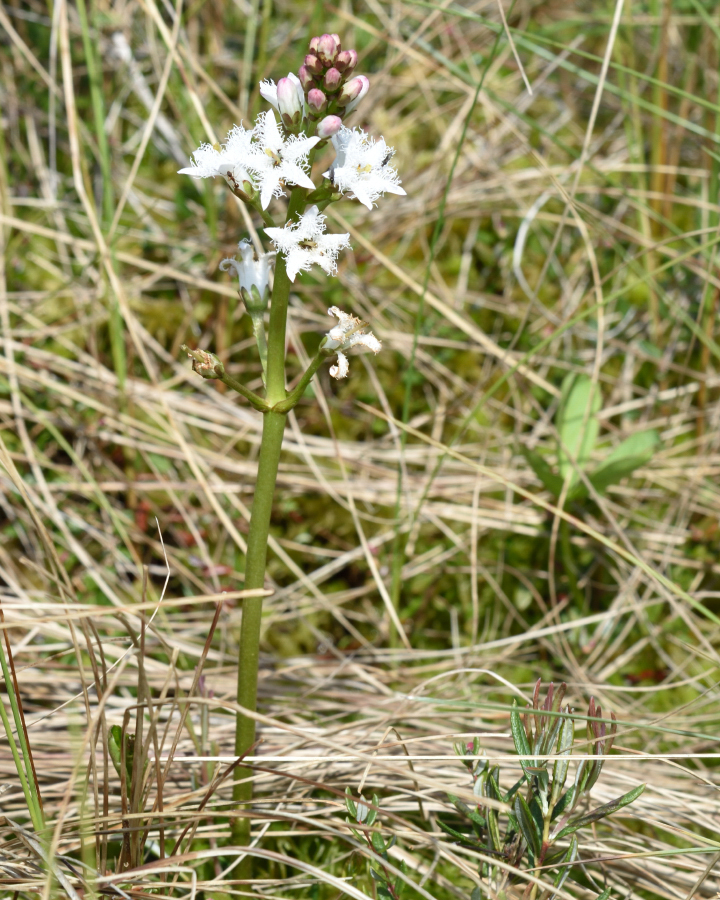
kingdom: Plantae
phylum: Tracheophyta
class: Magnoliopsida
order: Asterales
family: Menyanthaceae
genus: Menyanthes
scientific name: Menyanthes trifoliata
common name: Bogbean
